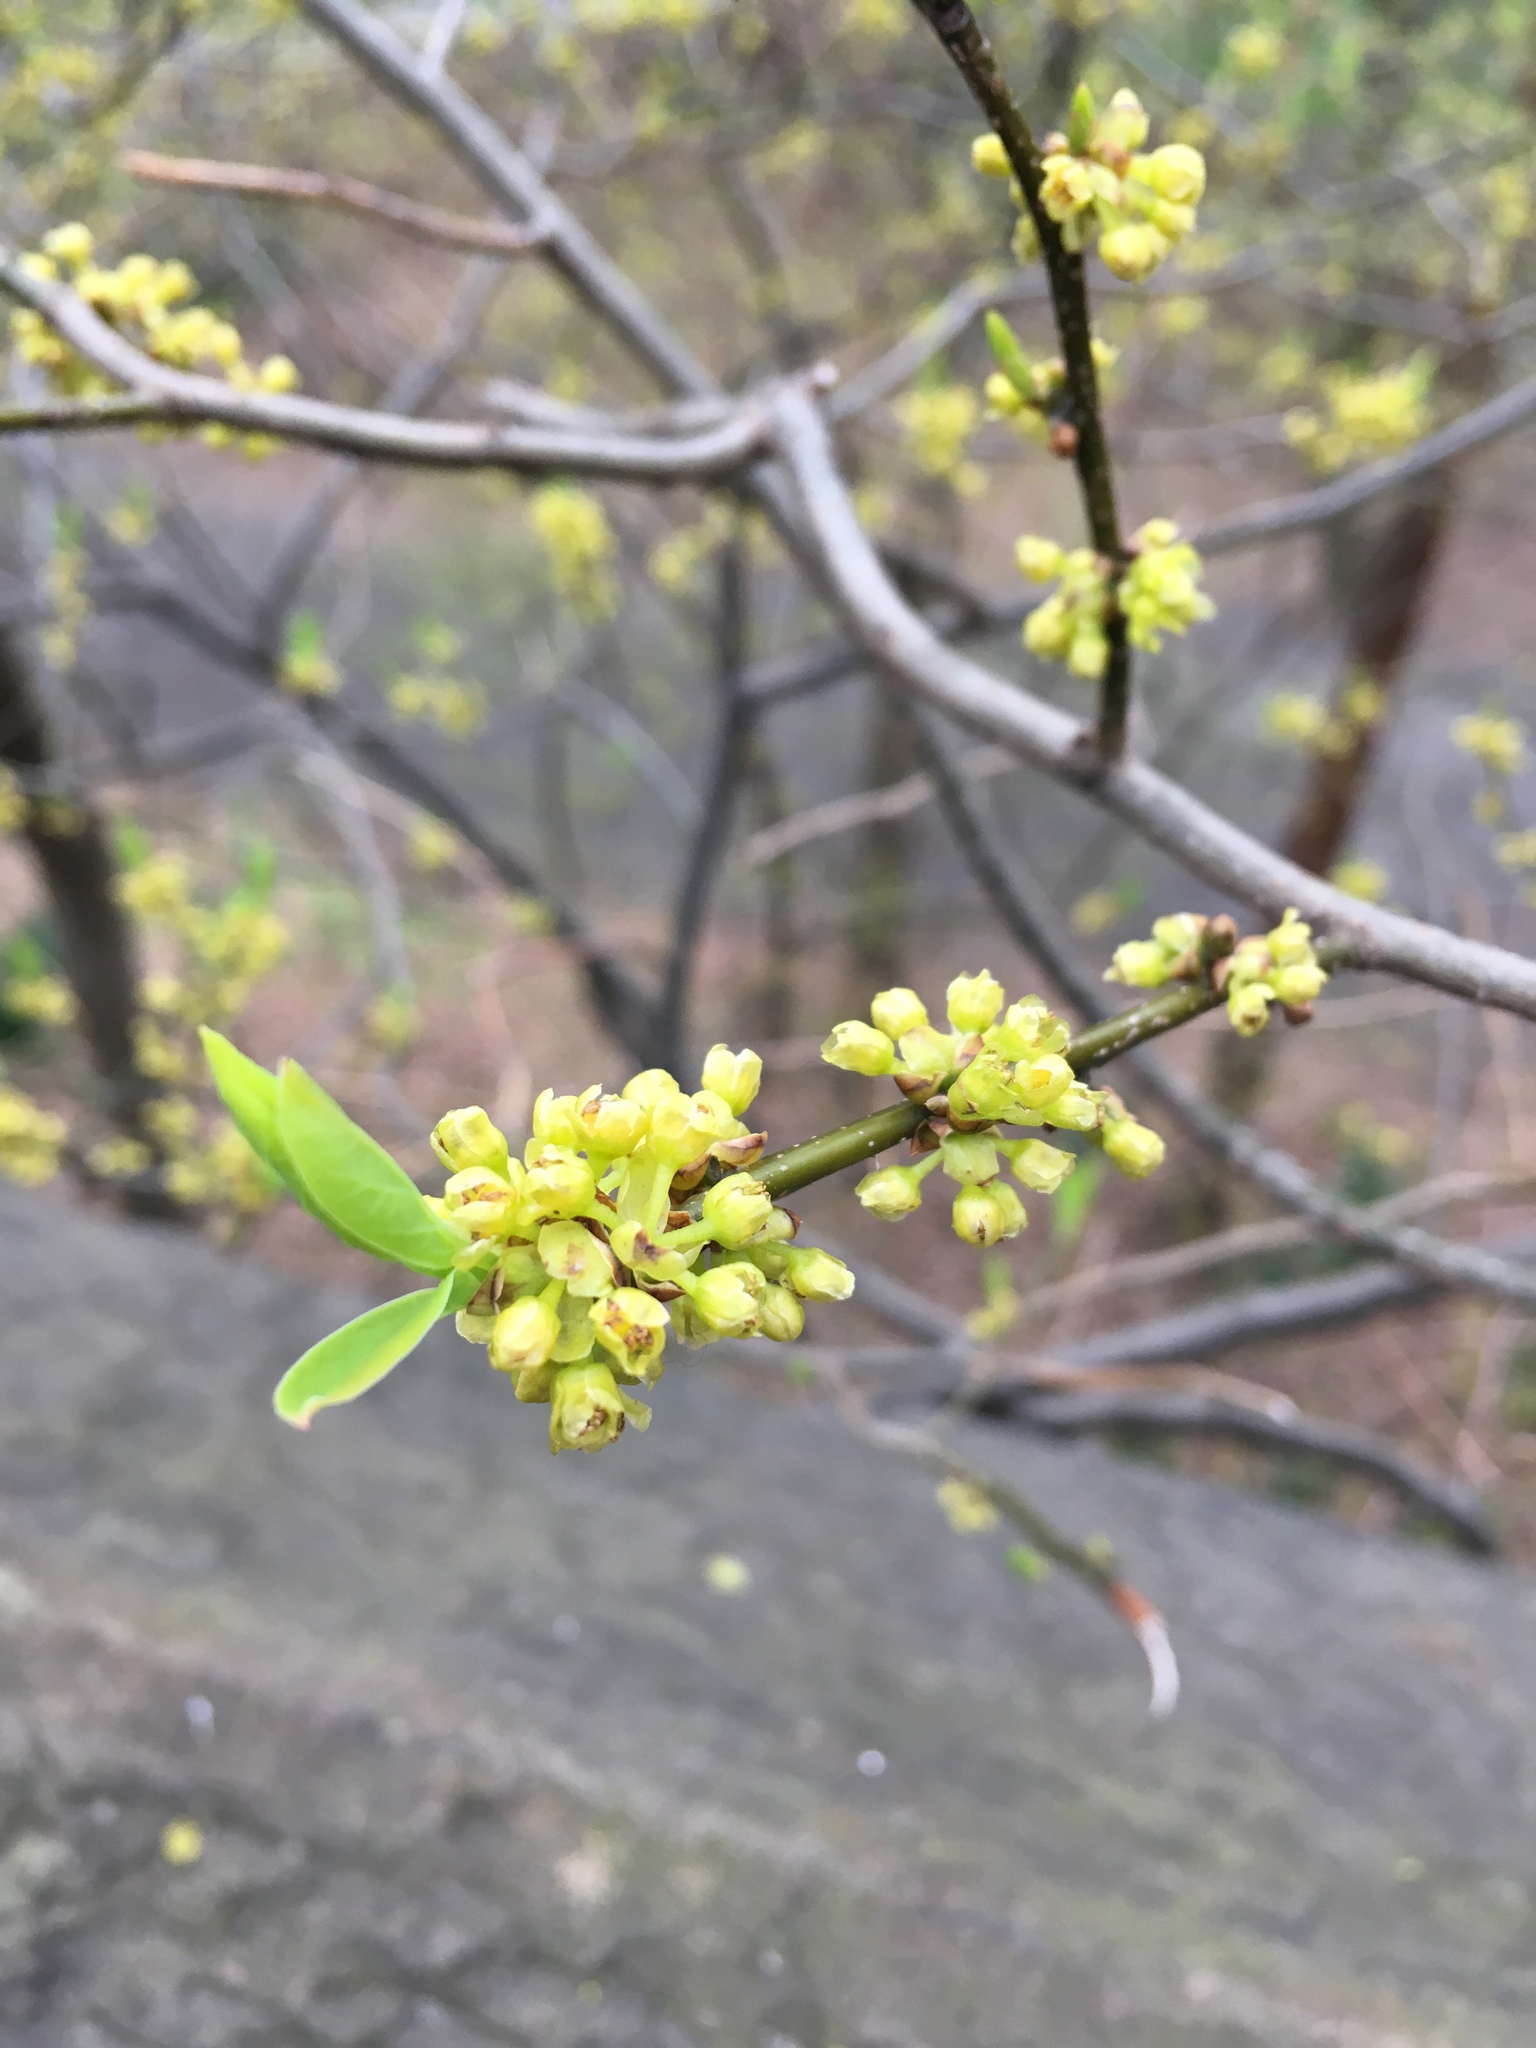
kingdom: Plantae
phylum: Tracheophyta
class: Magnoliopsida
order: Laurales
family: Lauraceae
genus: Lindera
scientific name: Lindera benzoin
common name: Spicebush
